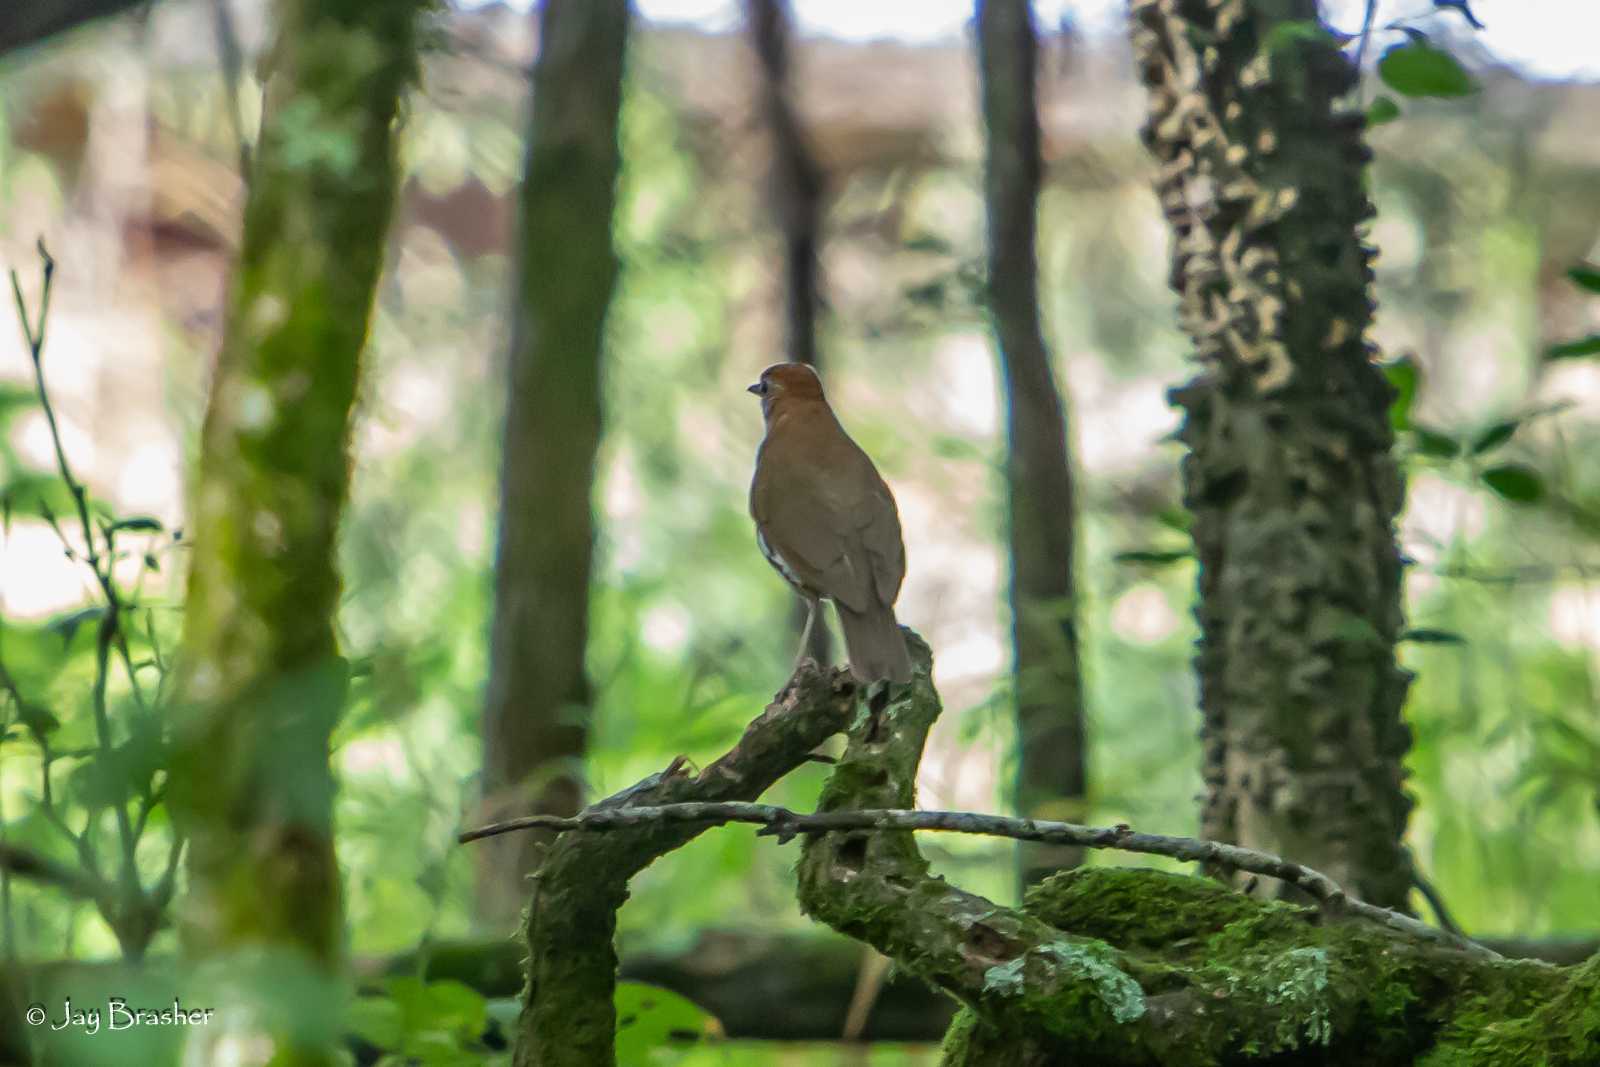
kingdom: Animalia
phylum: Chordata
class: Aves
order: Passeriformes
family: Turdidae
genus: Hylocichla
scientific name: Hylocichla mustelina
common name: Wood thrush
